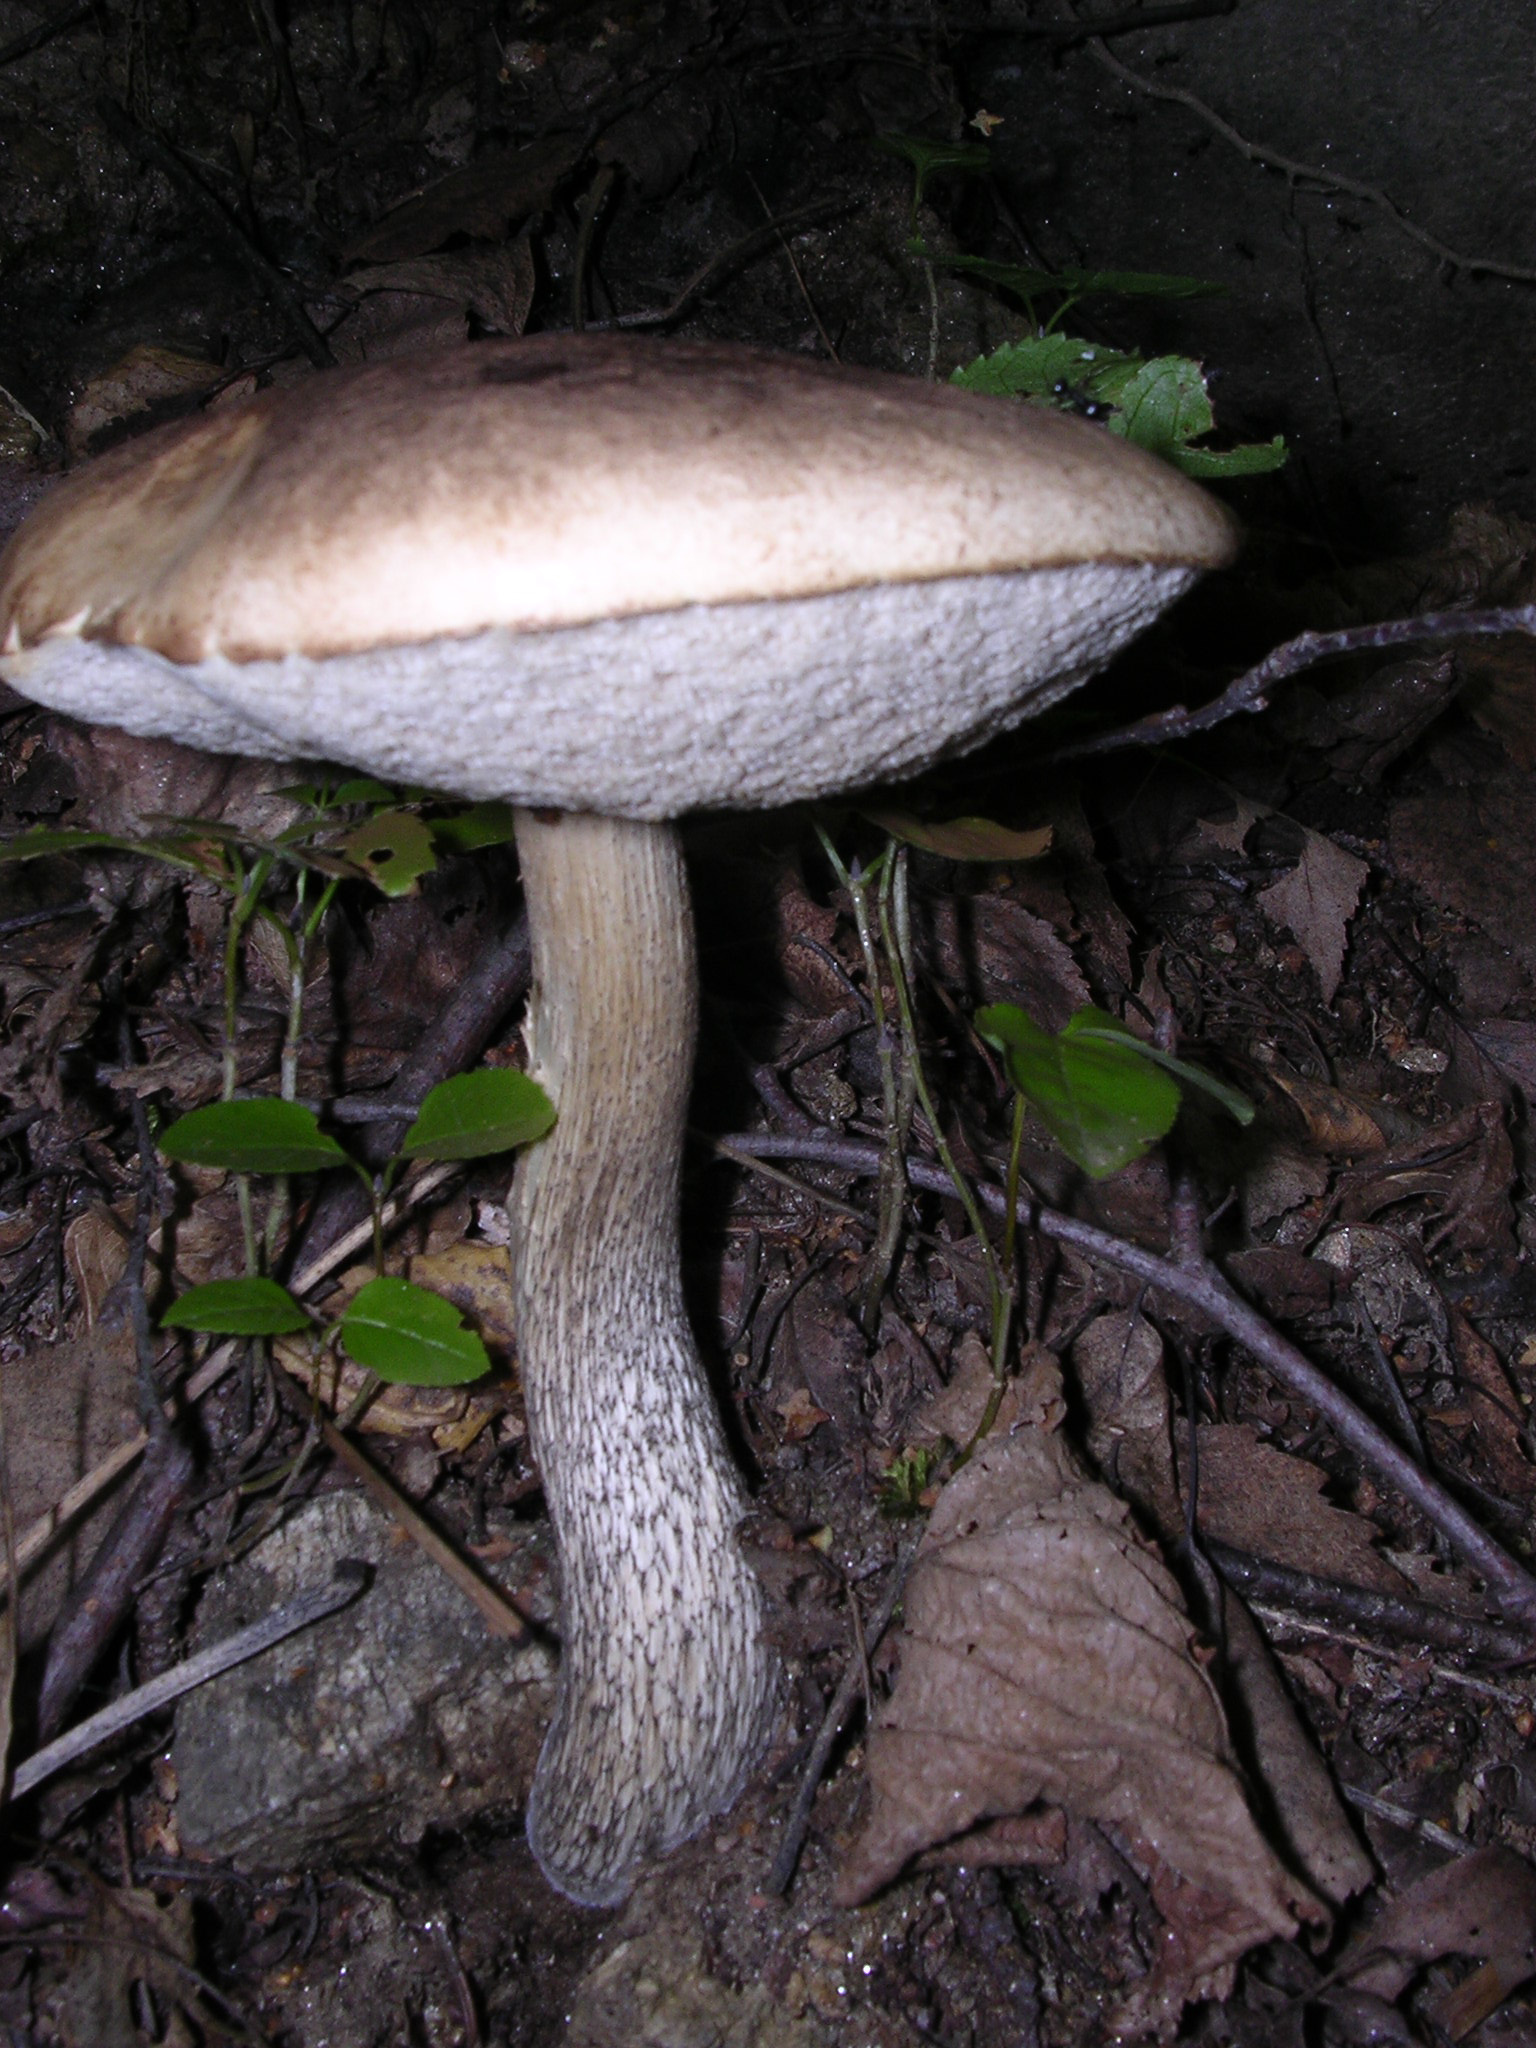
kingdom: Fungi
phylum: Basidiomycota
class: Agaricomycetes
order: Boletales
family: Boletaceae
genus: Leccinum
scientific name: Leccinum scabrum
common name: Blushing bolete
